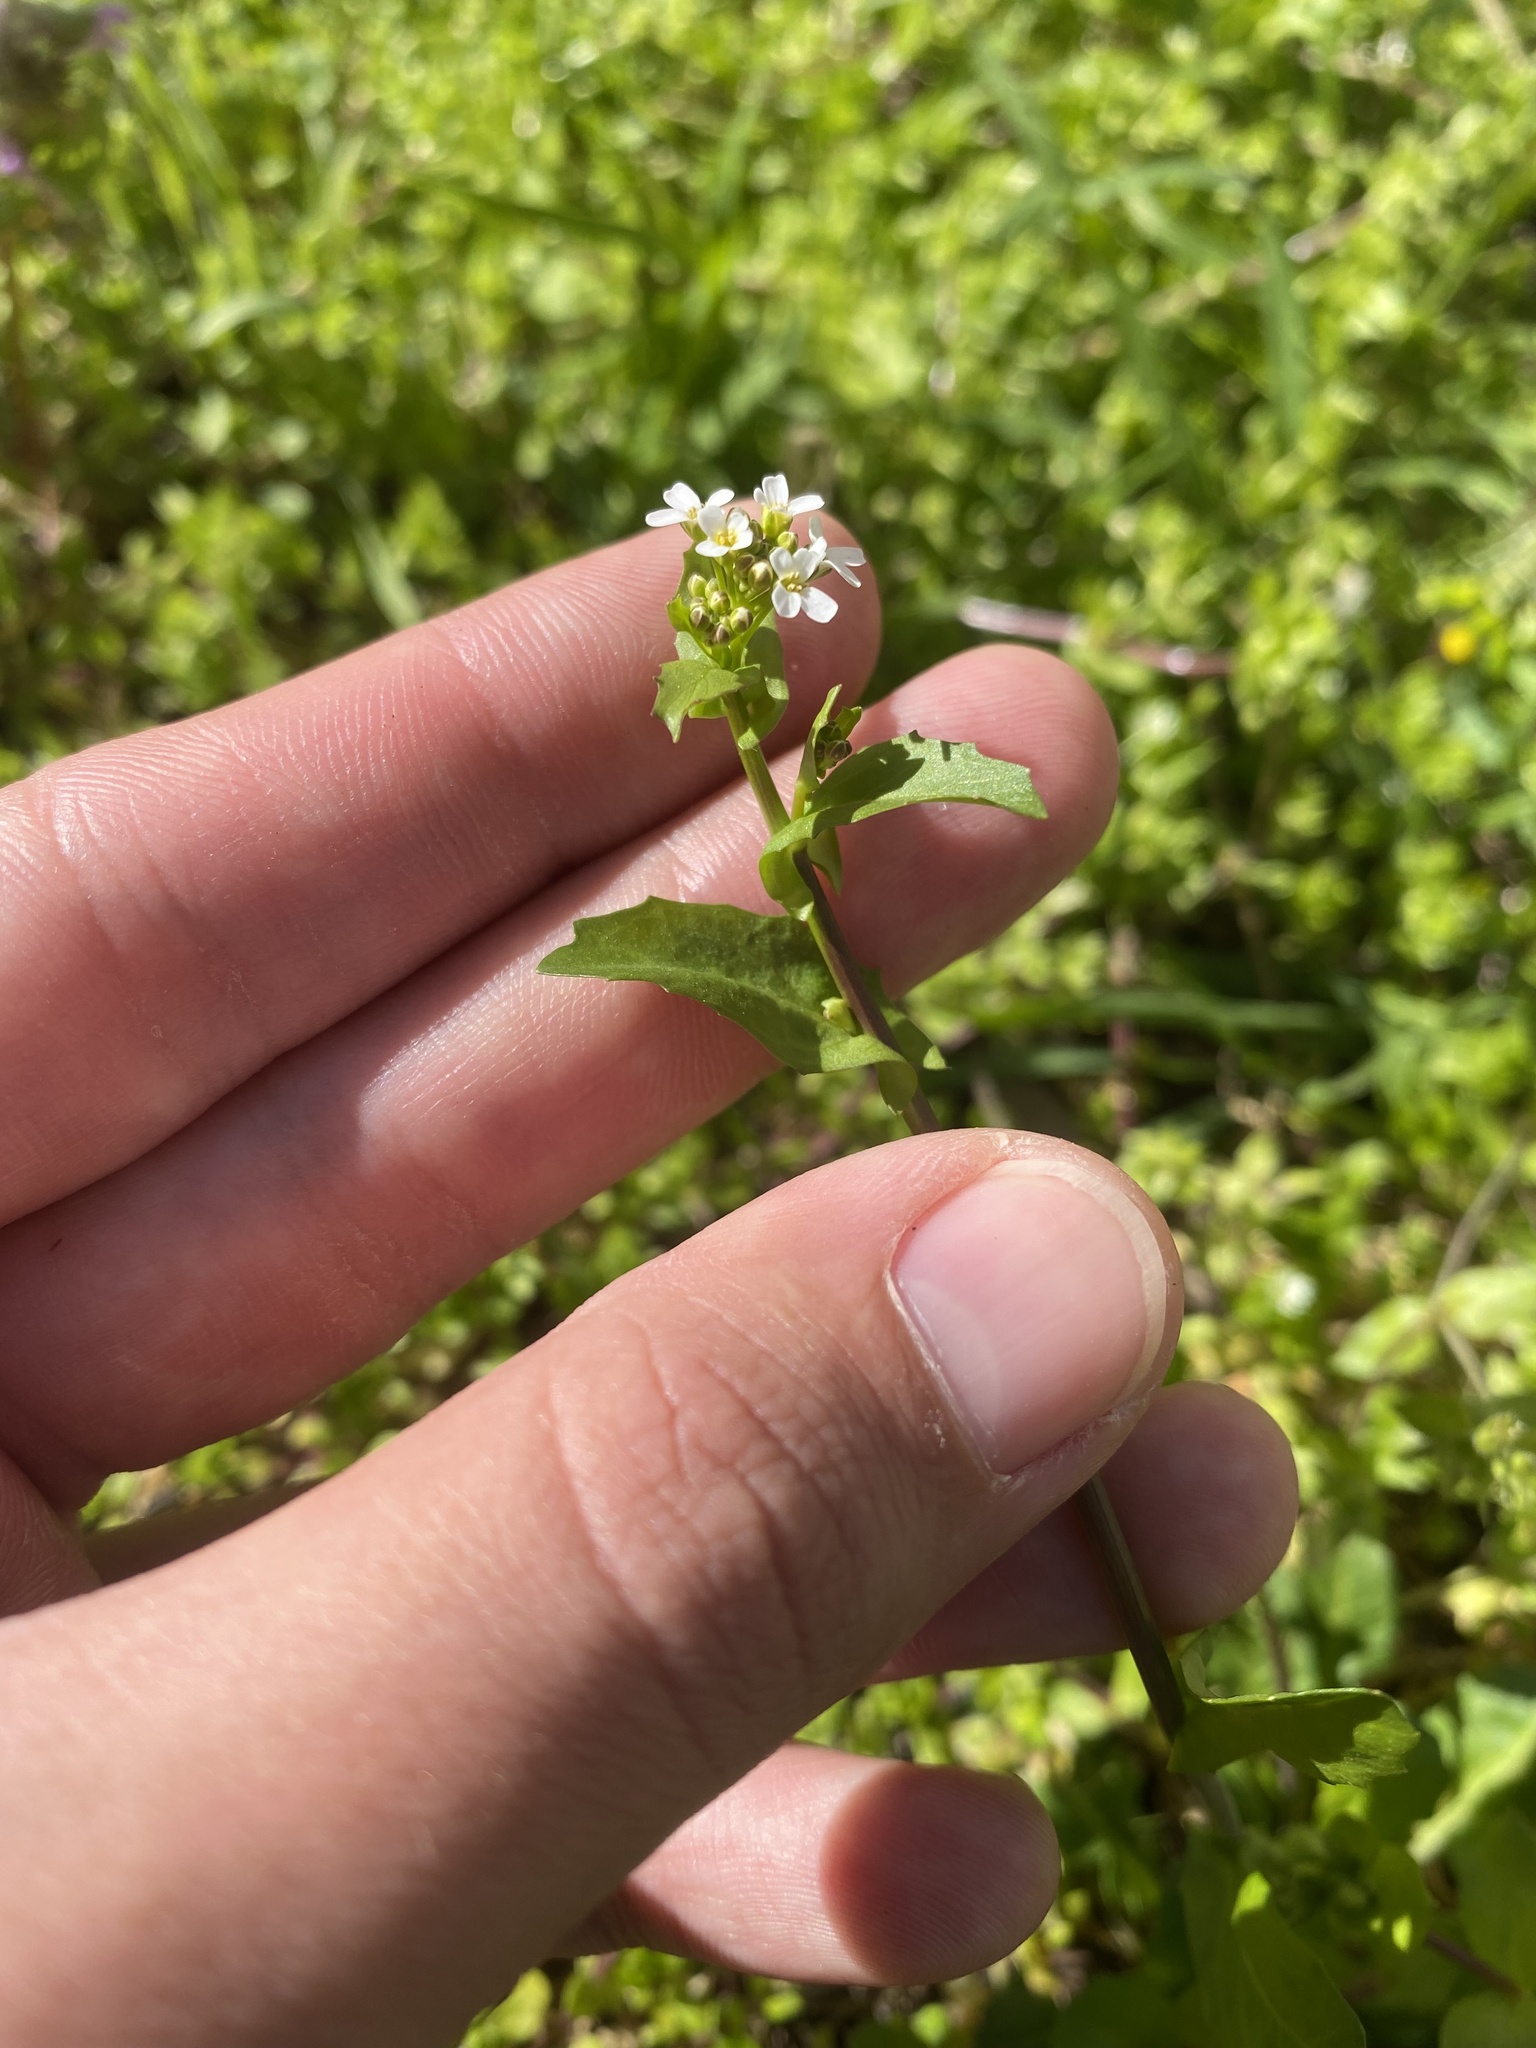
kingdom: Plantae
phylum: Tracheophyta
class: Magnoliopsida
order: Brassicales
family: Brassicaceae
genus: Calepina
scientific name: Calepina irregularis
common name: White ballmustard
